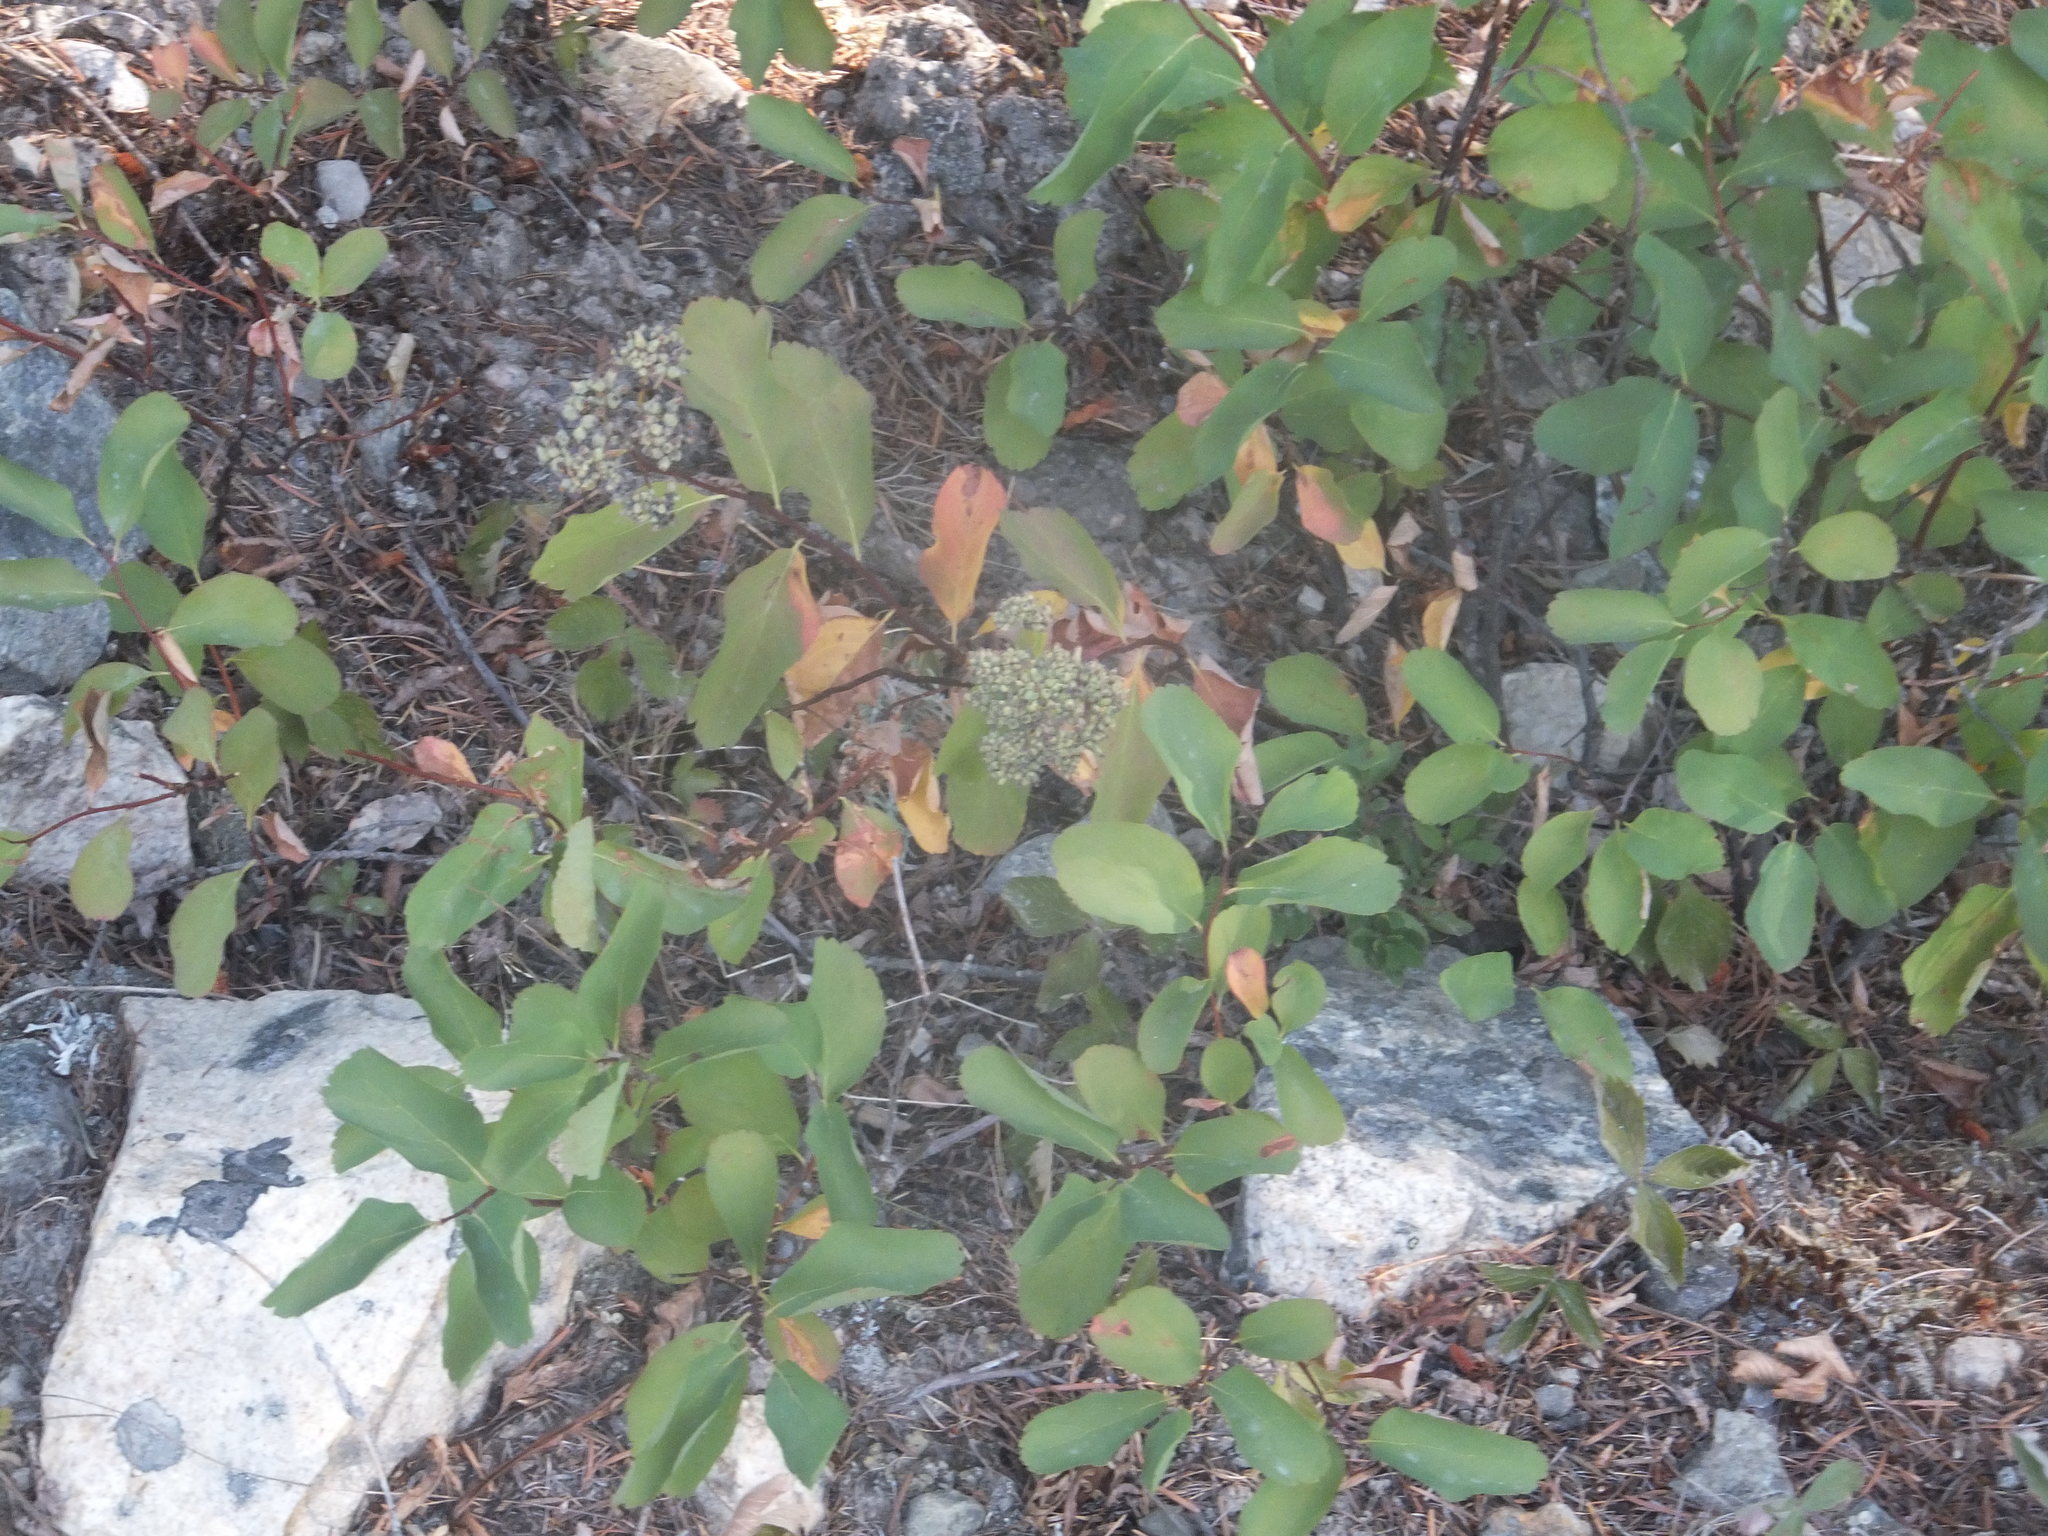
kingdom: Plantae
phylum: Tracheophyta
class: Magnoliopsida
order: Rosales
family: Rosaceae
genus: Spiraea
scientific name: Spiraea lucida
